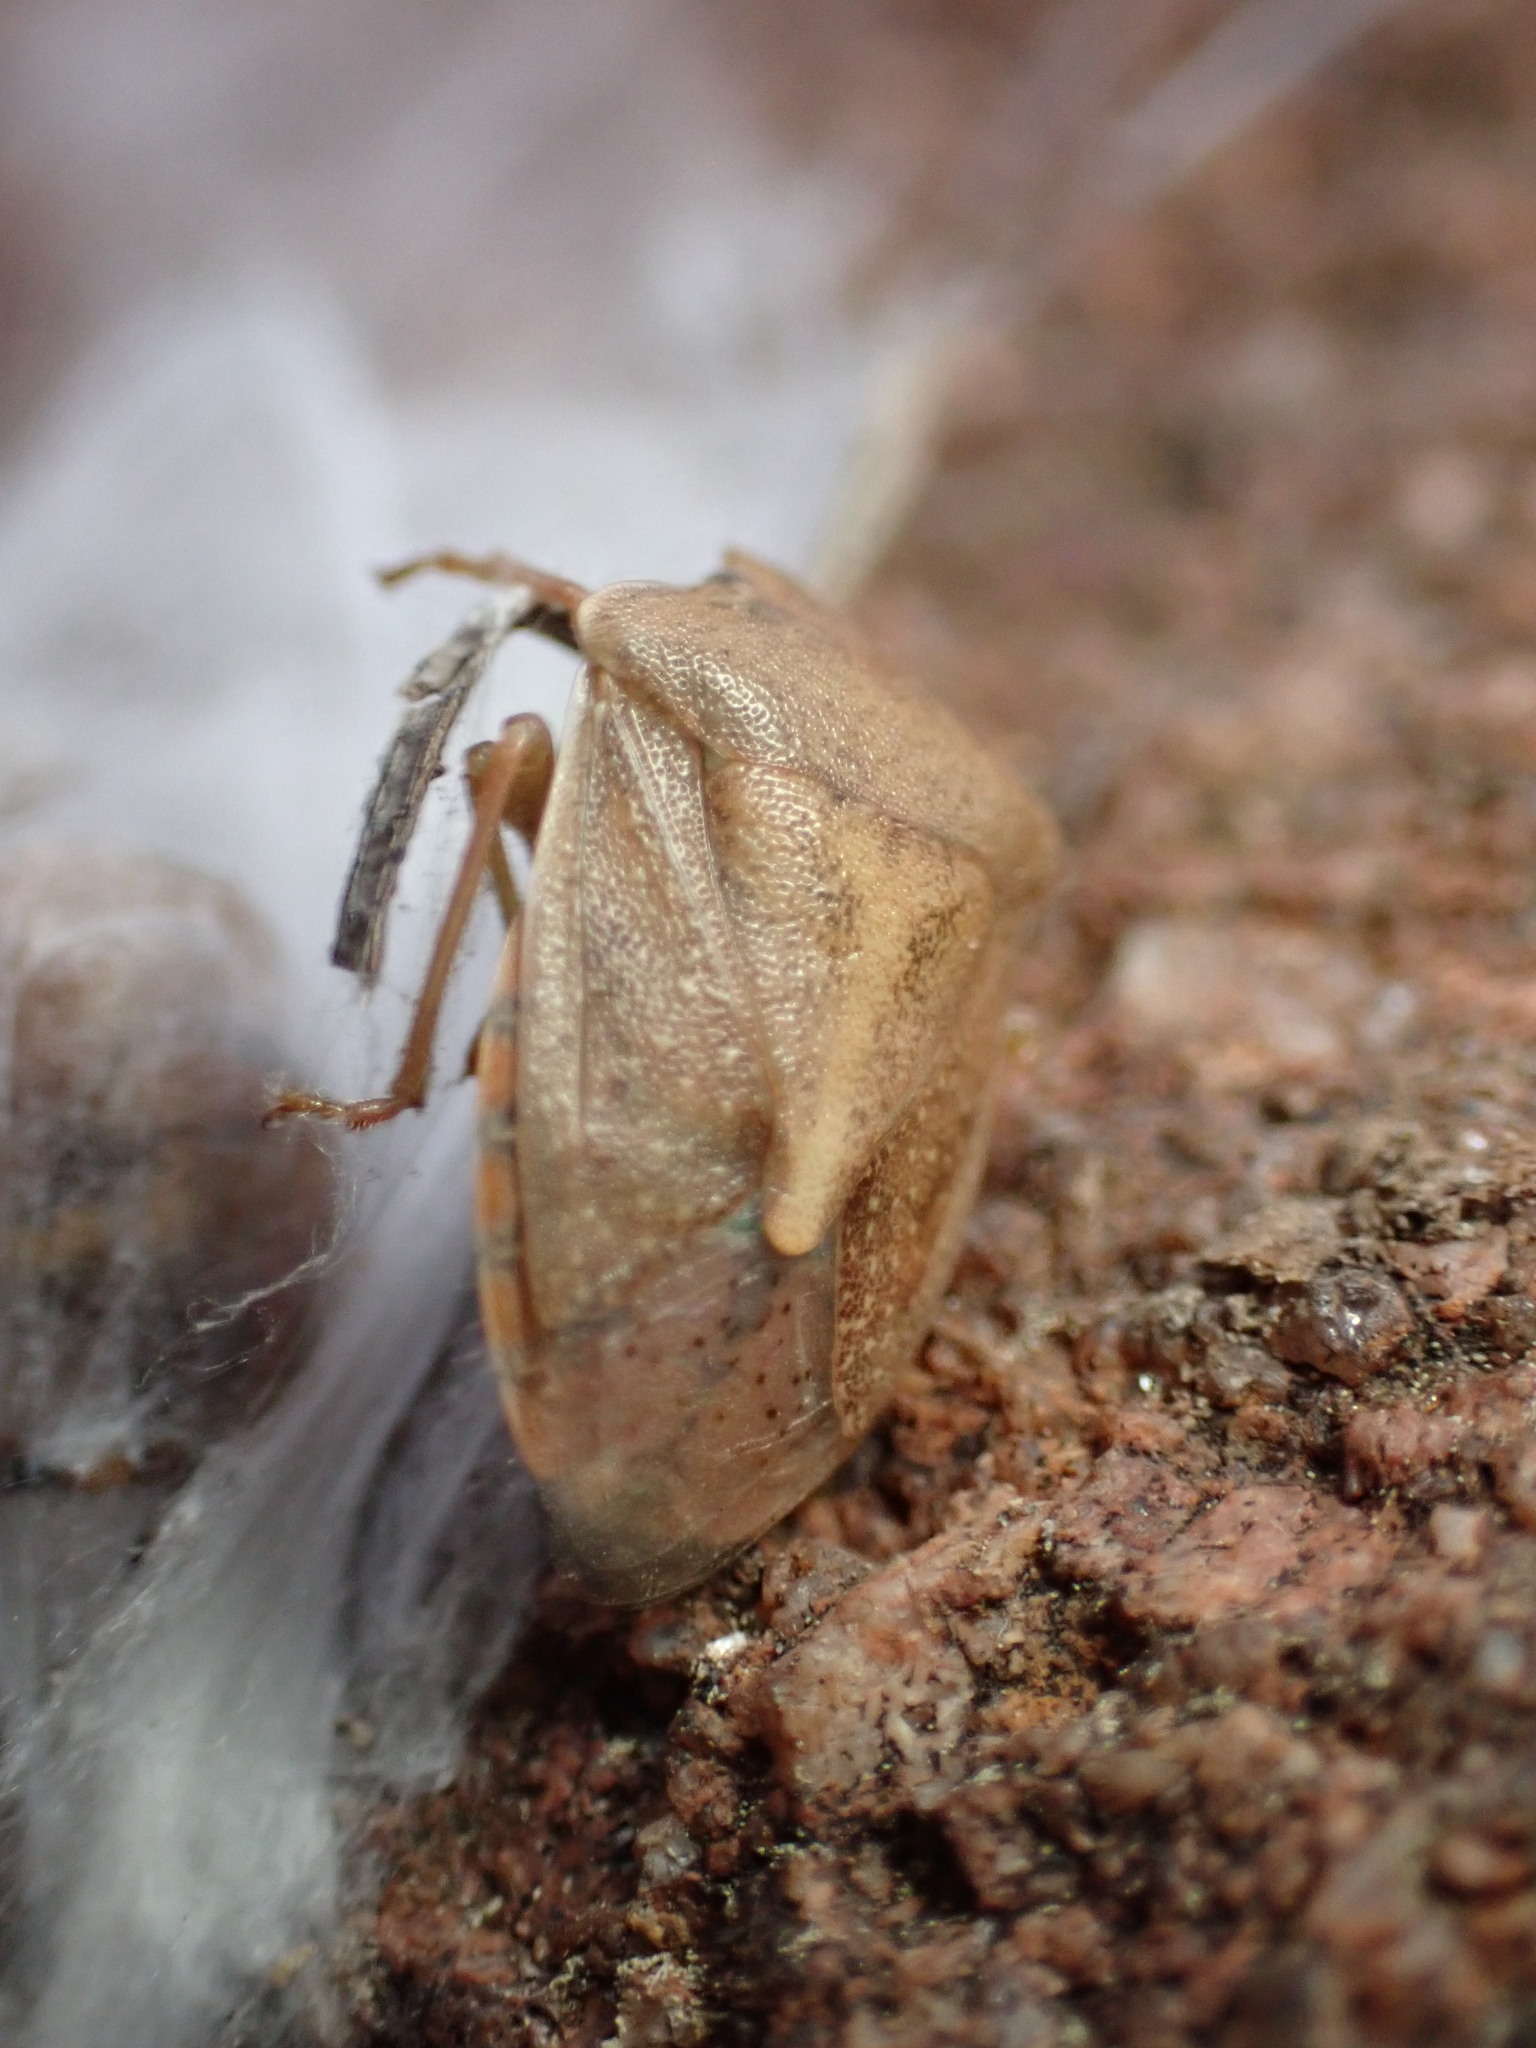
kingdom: Animalia
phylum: Arthropoda
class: Insecta
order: Hemiptera
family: Pentatomidae
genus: Thyanta
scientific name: Thyanta accerra
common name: Stink bug
